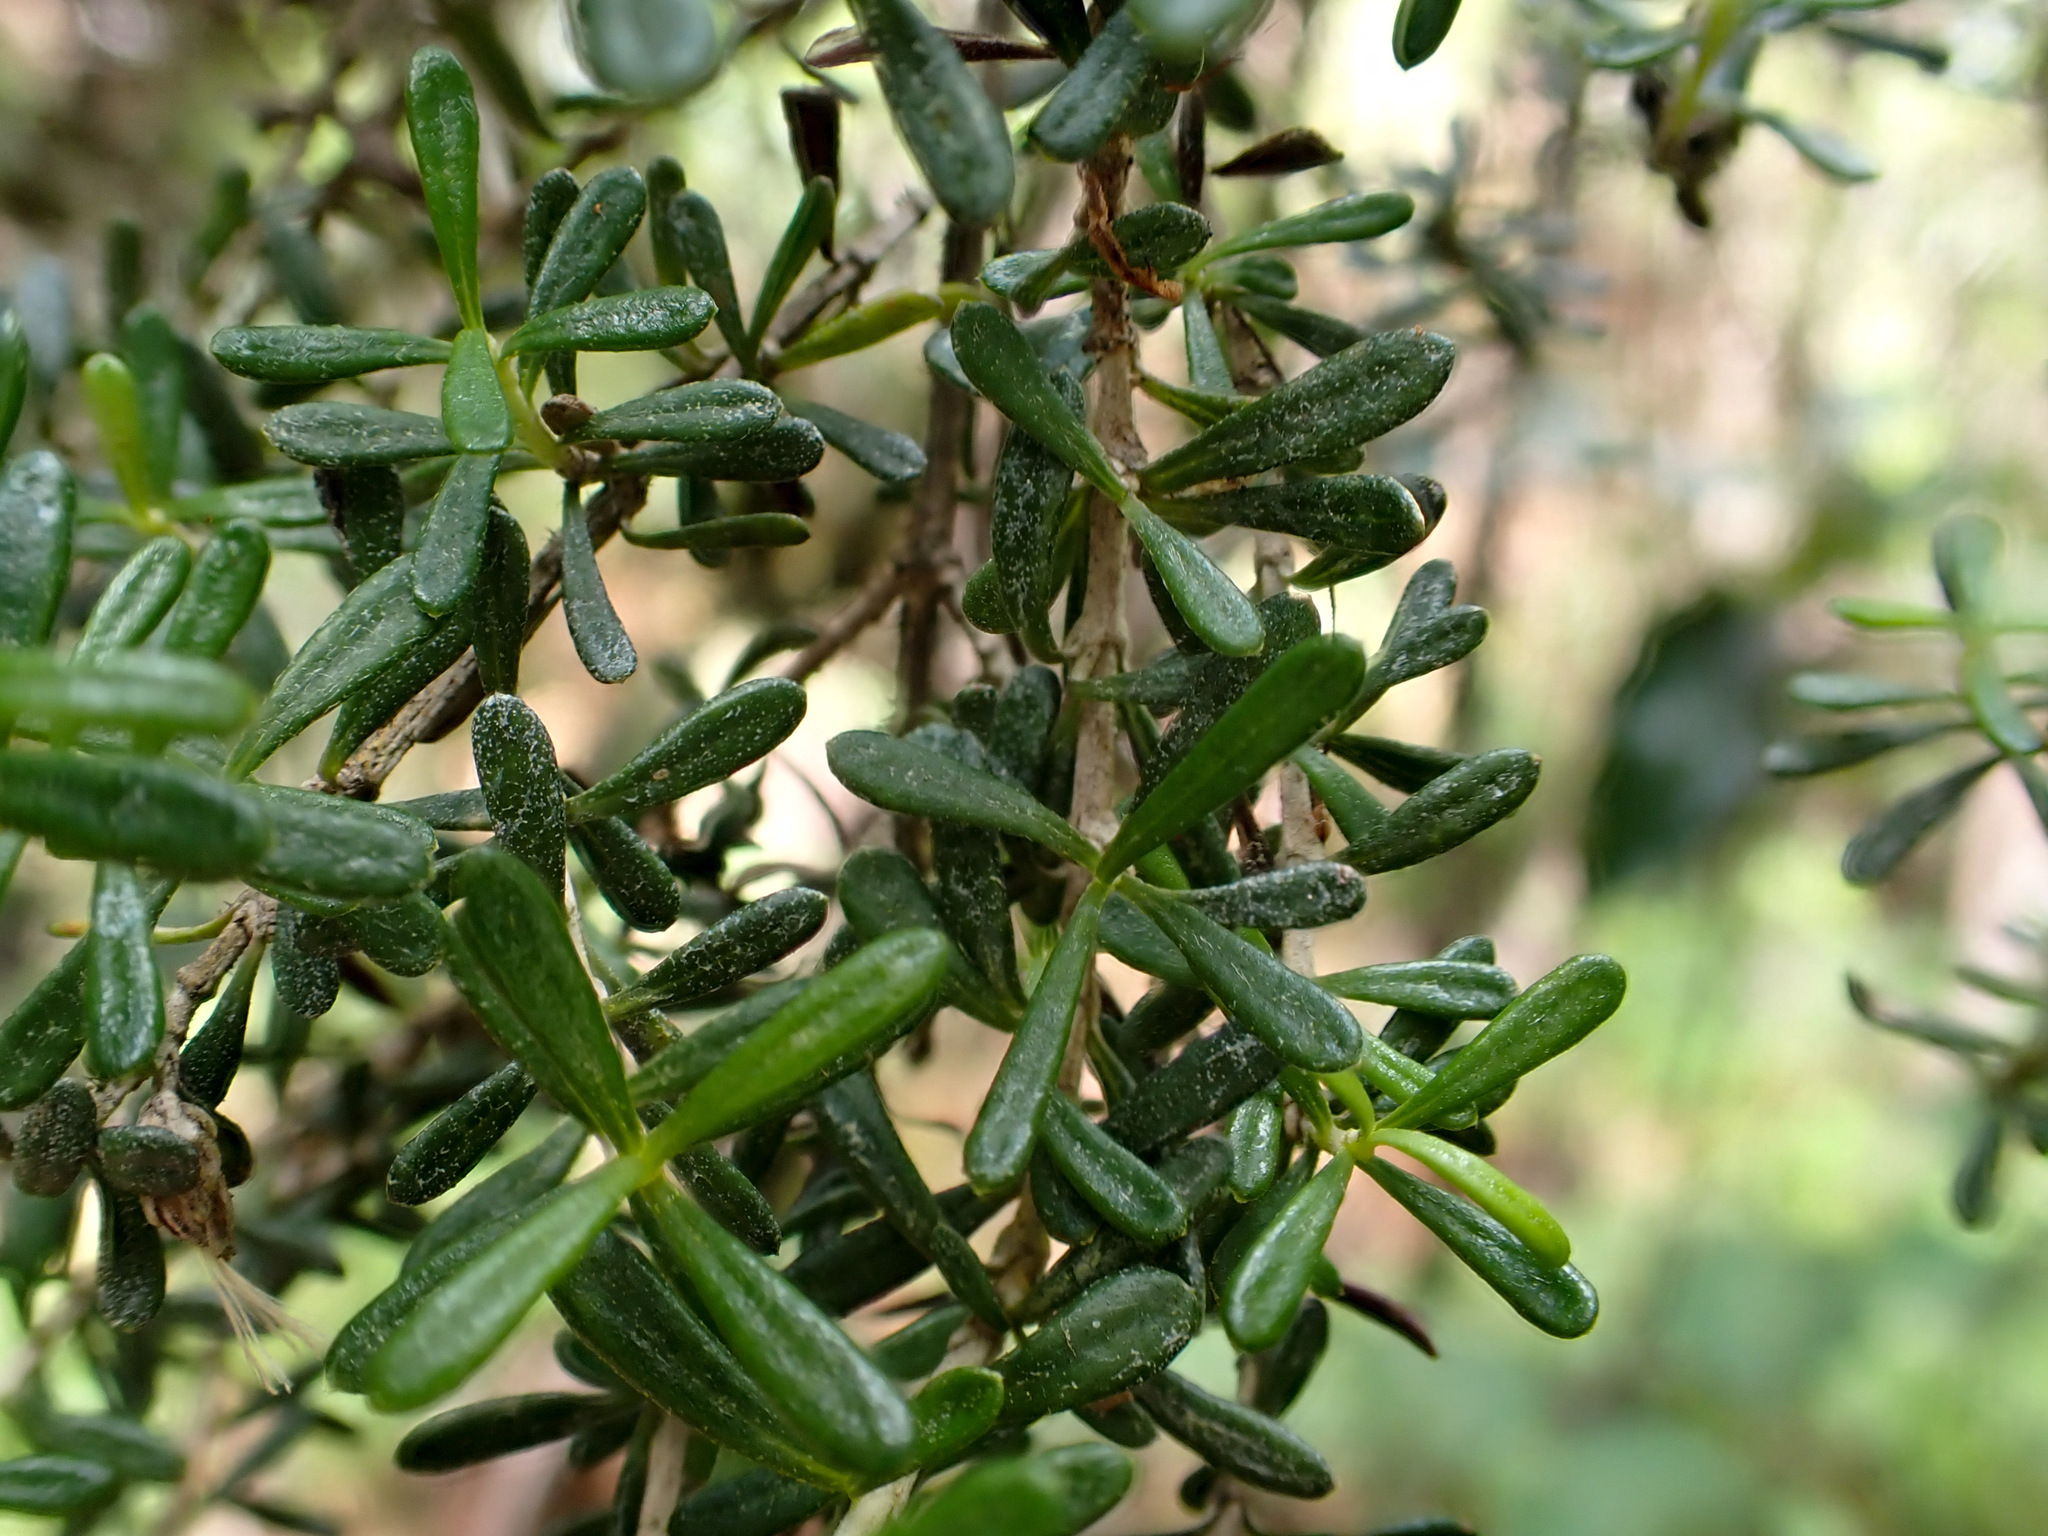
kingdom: Plantae
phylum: Tracheophyta
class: Magnoliopsida
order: Asterales
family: Asteraceae
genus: Olearia
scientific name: Olearia solandri
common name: Coastal daisybush
